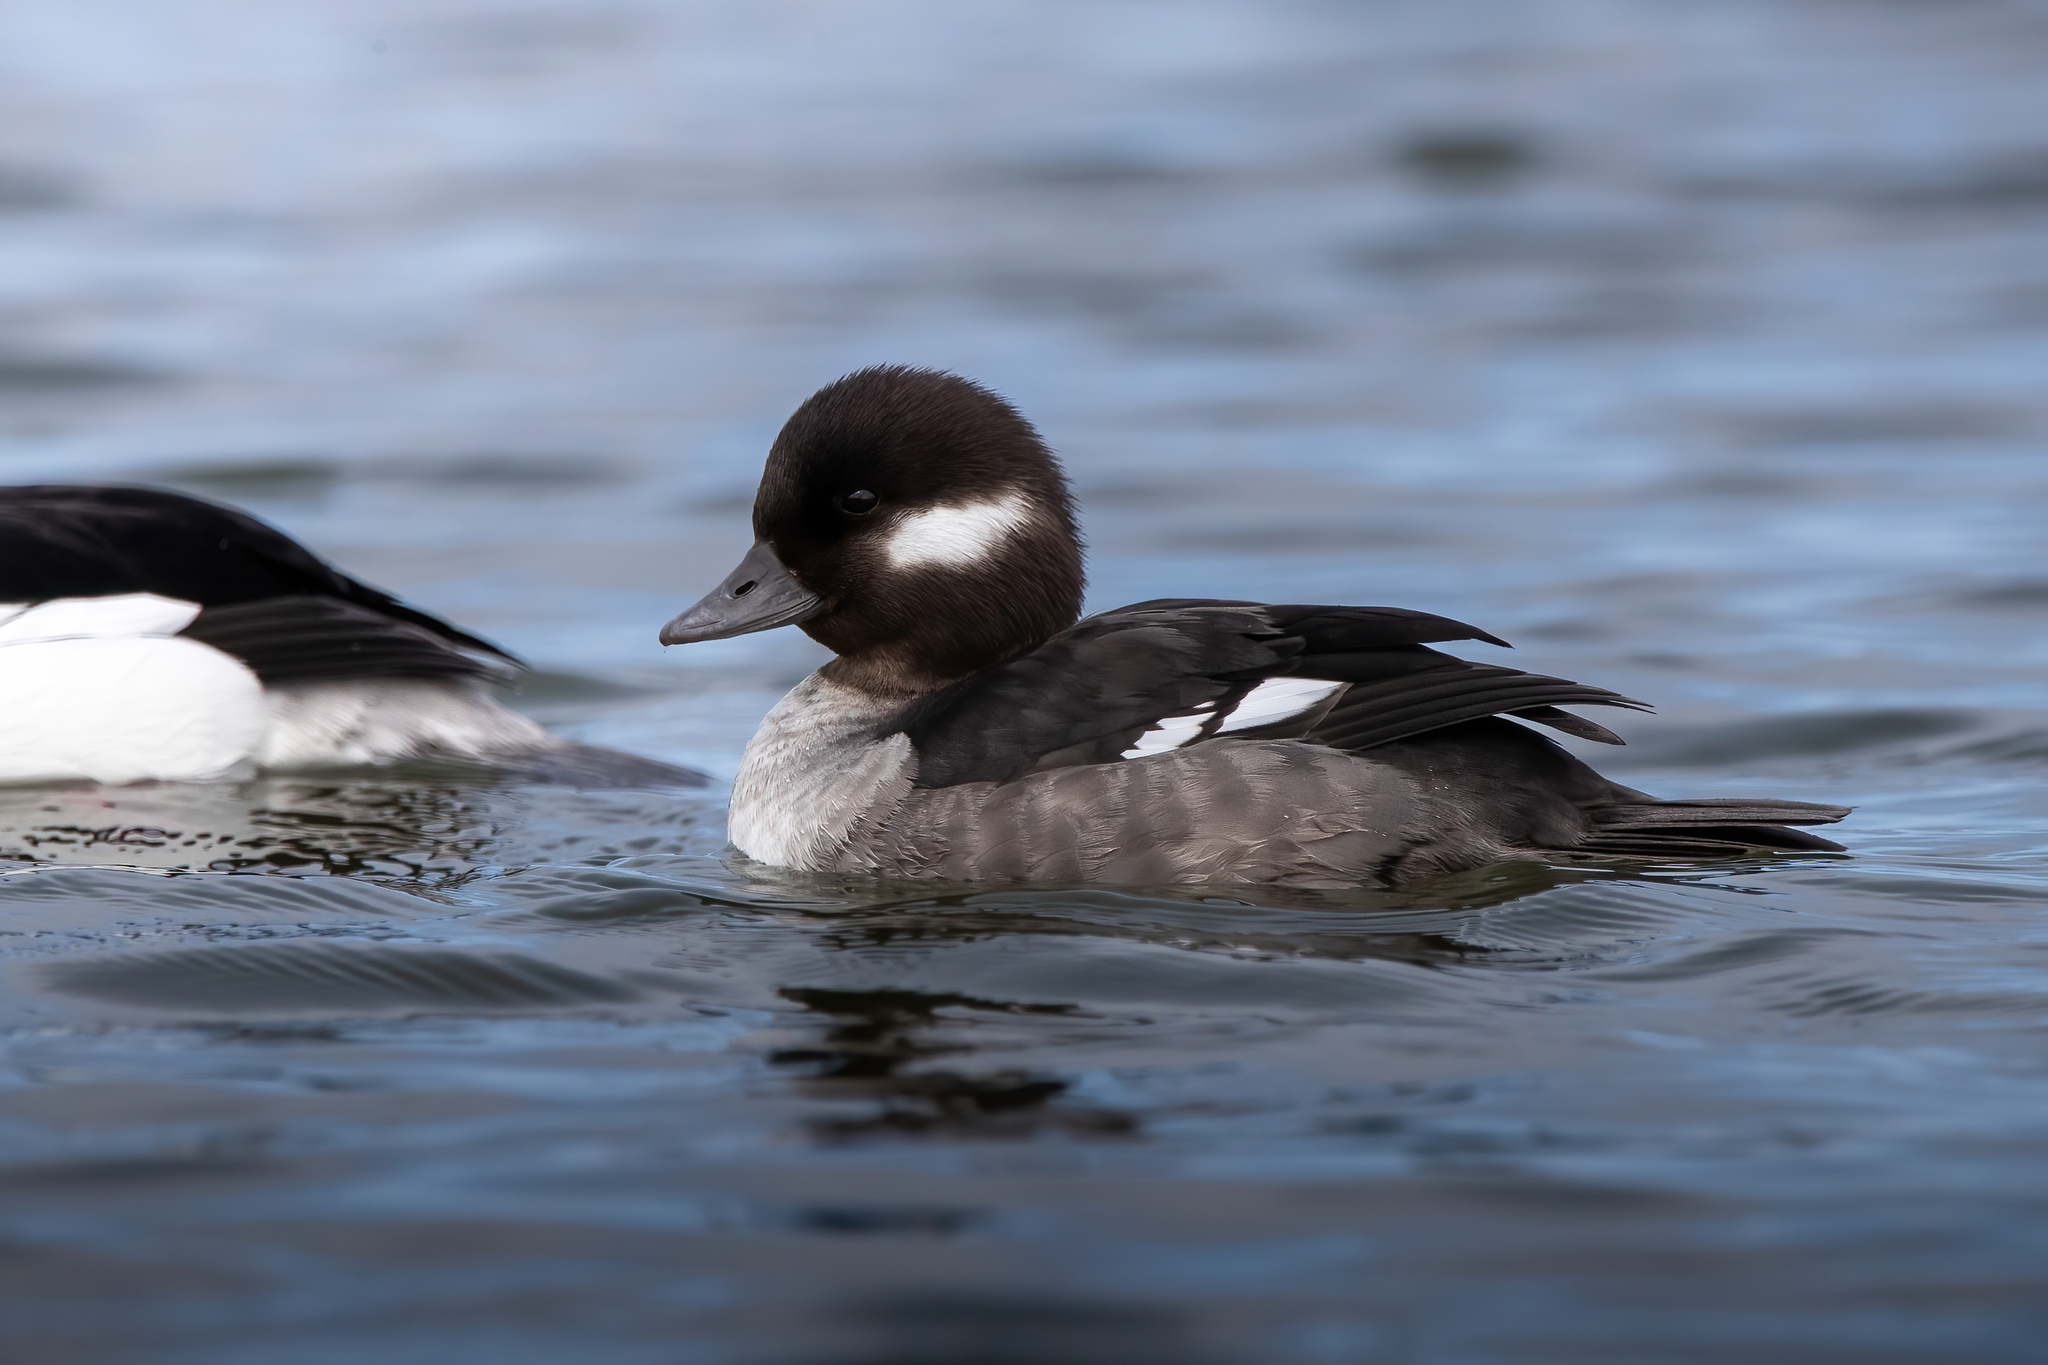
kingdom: Animalia
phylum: Chordata
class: Aves
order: Anseriformes
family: Anatidae
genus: Bucephala
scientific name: Bucephala albeola
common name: Bufflehead
